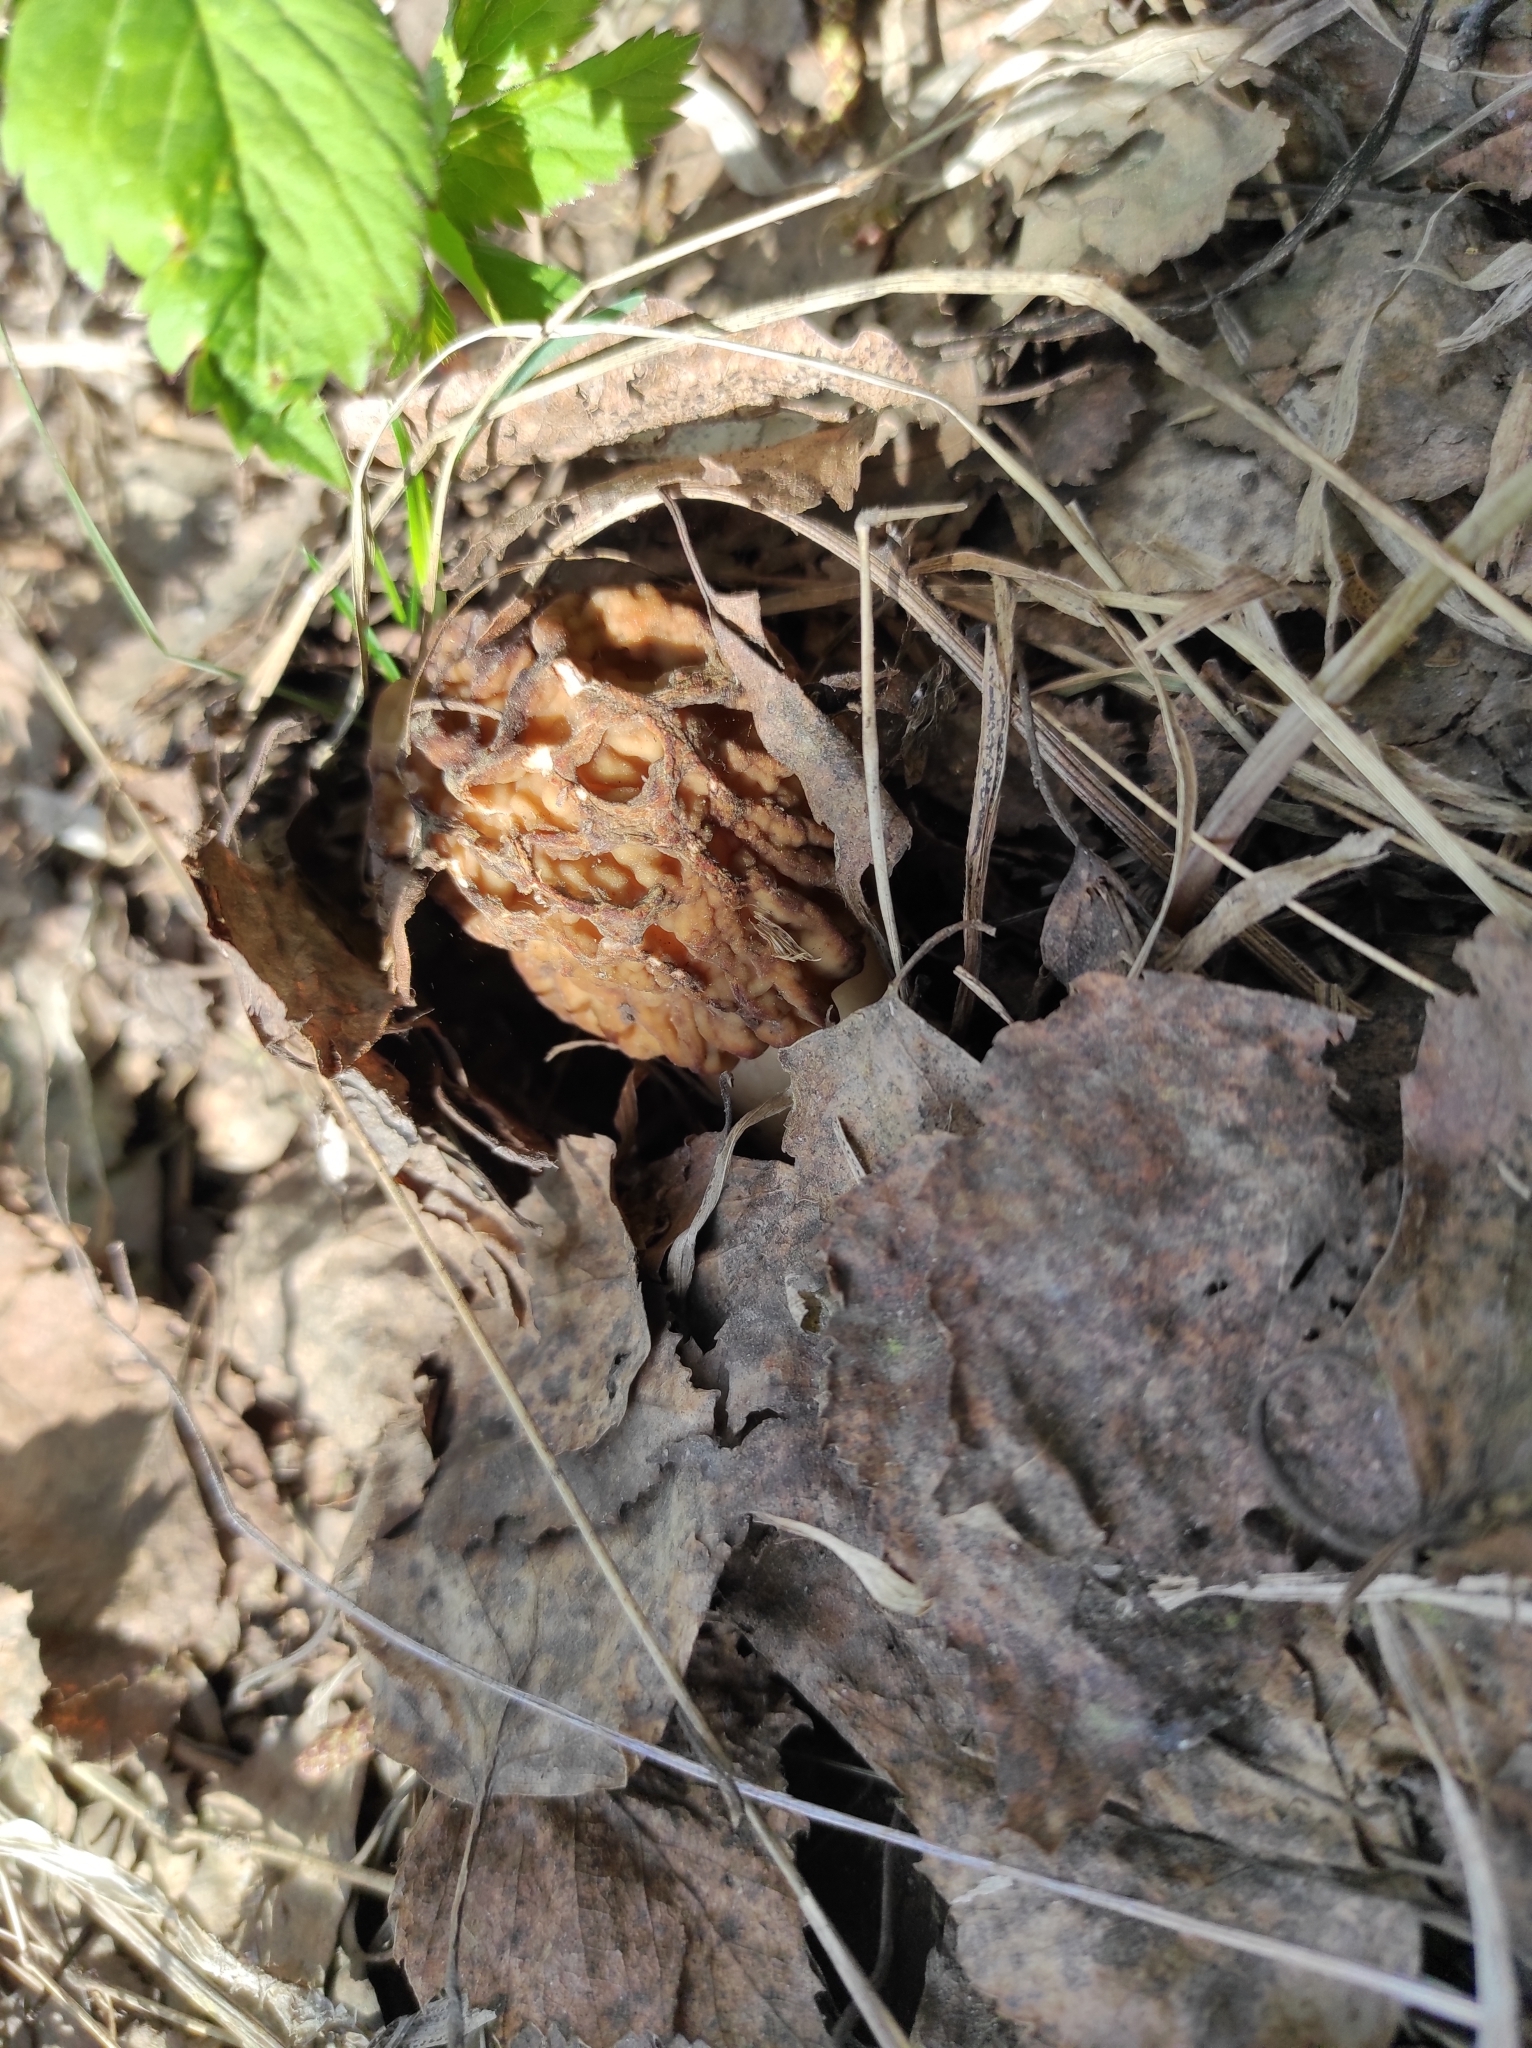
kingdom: Fungi
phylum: Ascomycota
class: Pezizomycetes
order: Pezizales
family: Morchellaceae
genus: Verpa
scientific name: Verpa bohemica
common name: Wrinkled thimble morel
